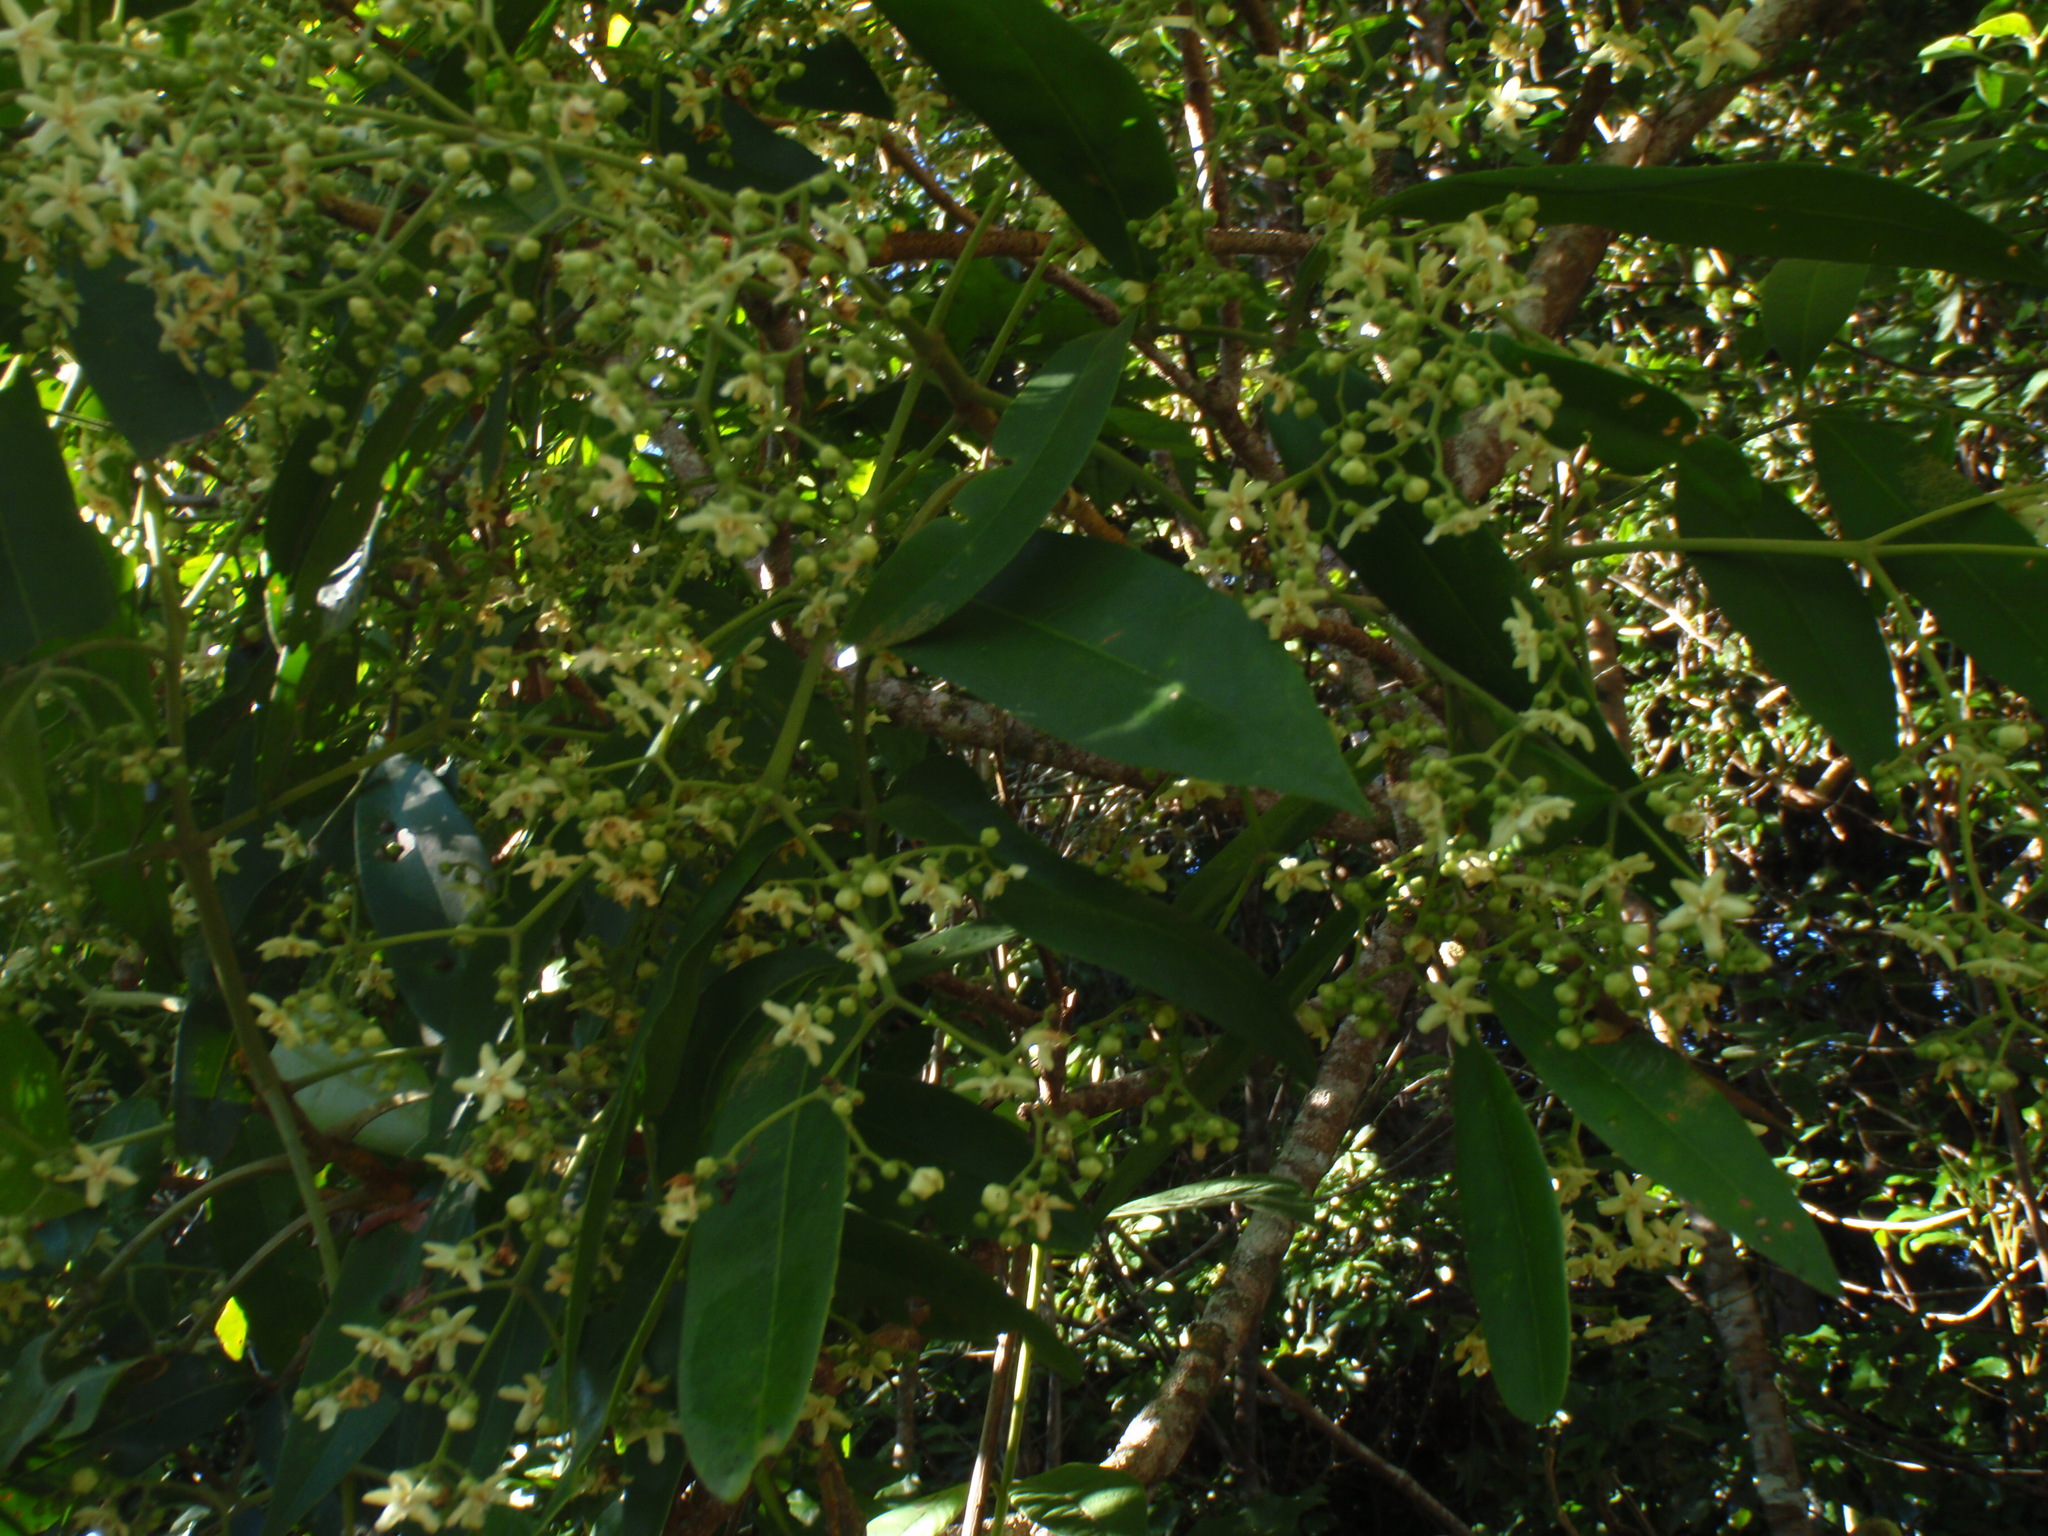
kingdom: Plantae
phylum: Tracheophyta
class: Magnoliopsida
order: Sapindales
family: Rutaceae
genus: Flindersia
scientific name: Flindersia bourjotiana
